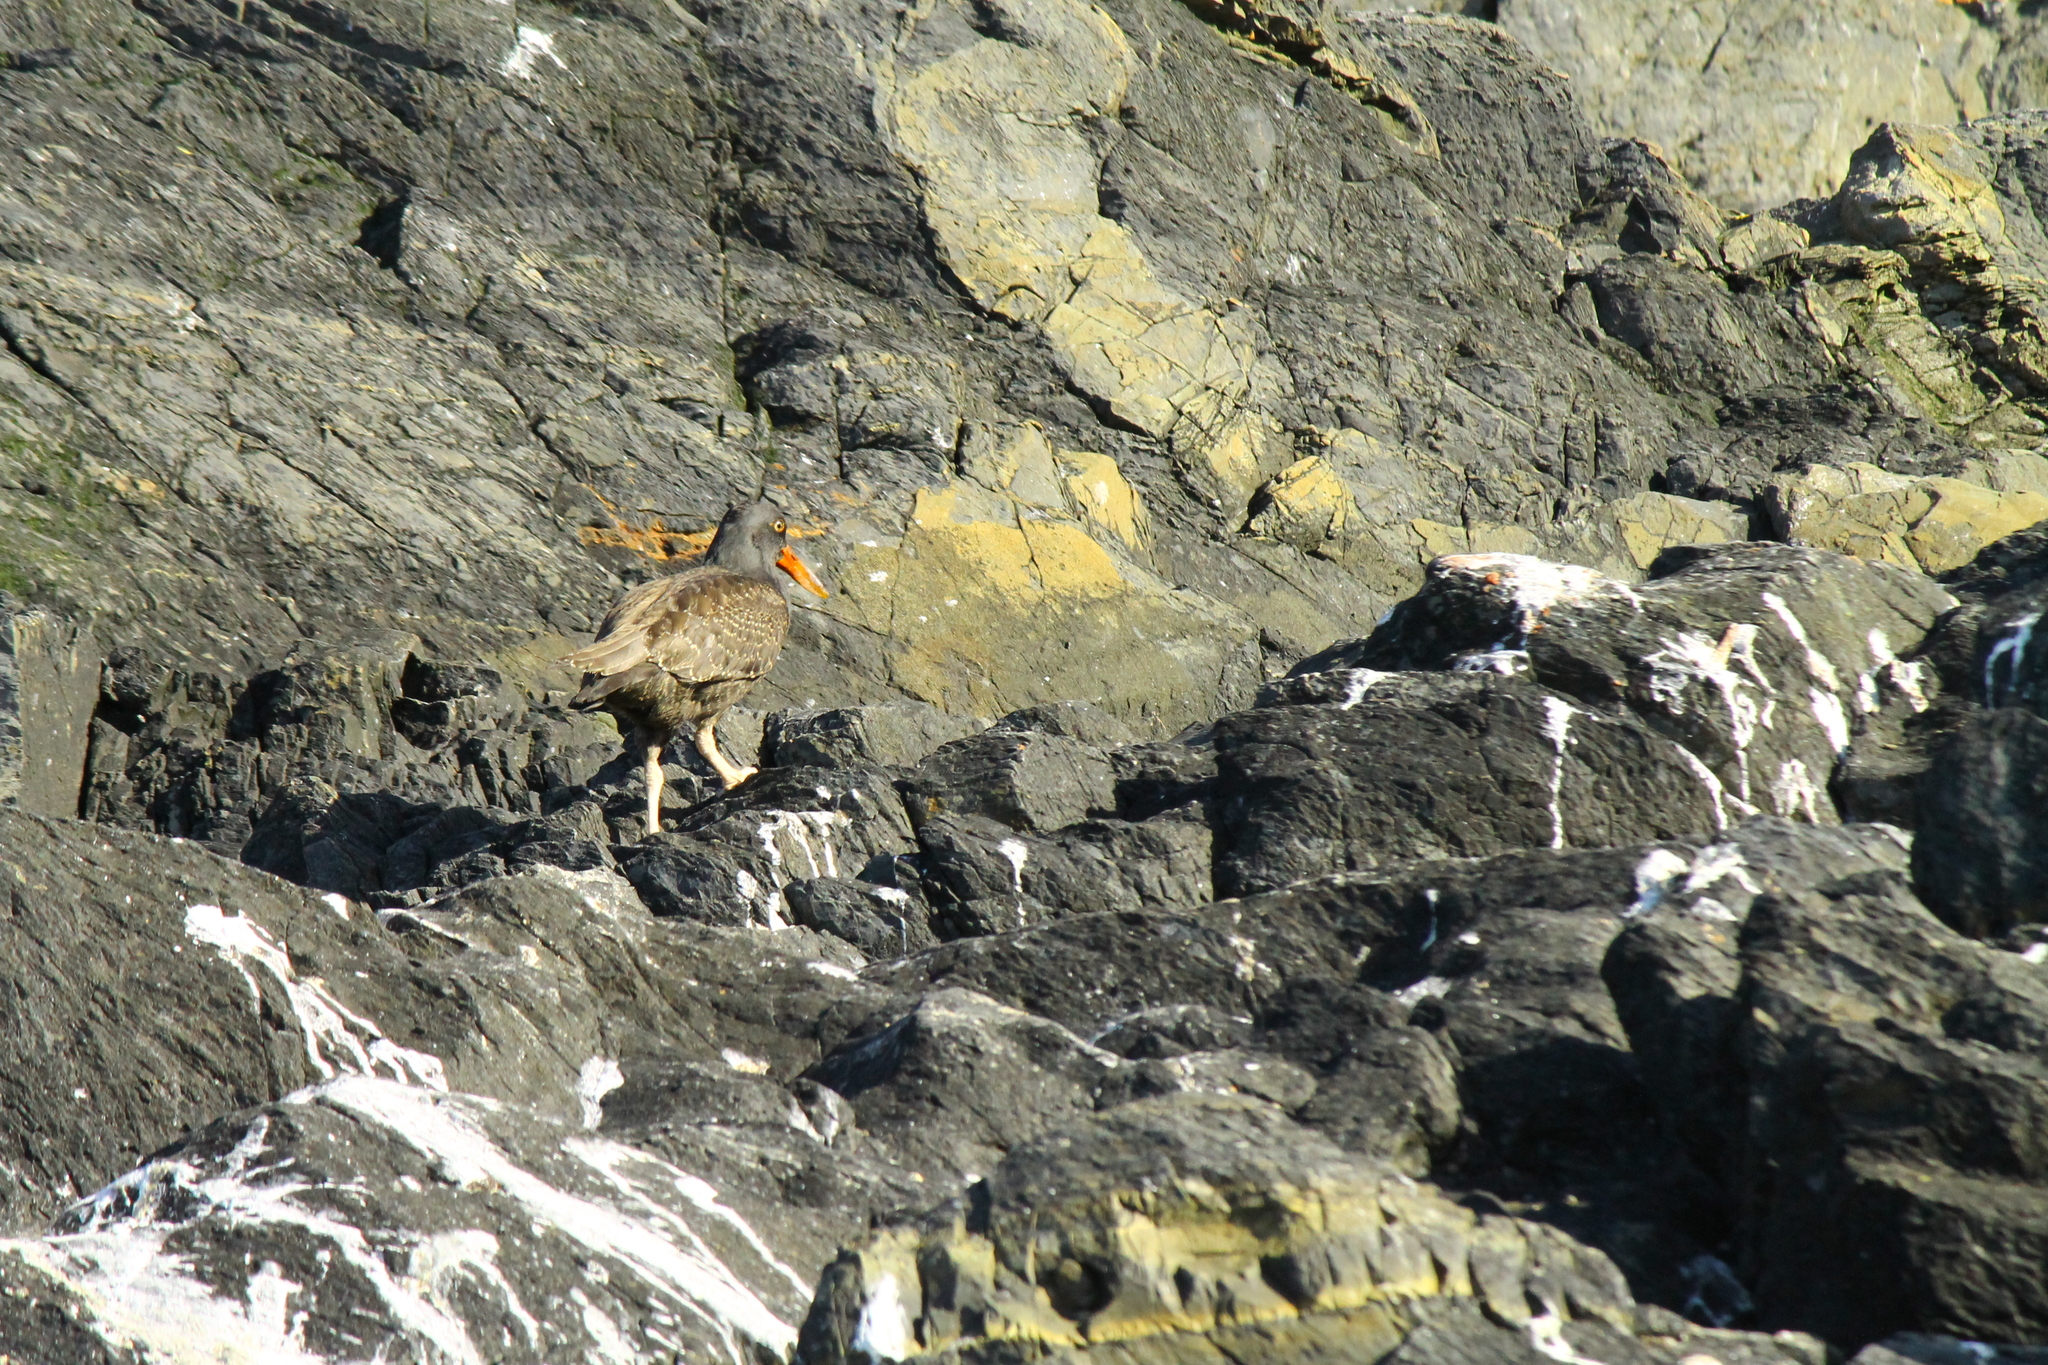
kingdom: Animalia
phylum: Chordata
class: Aves
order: Charadriiformes
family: Haematopodidae
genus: Haematopus
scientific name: Haematopus ater
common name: Blackish oystercatcher
